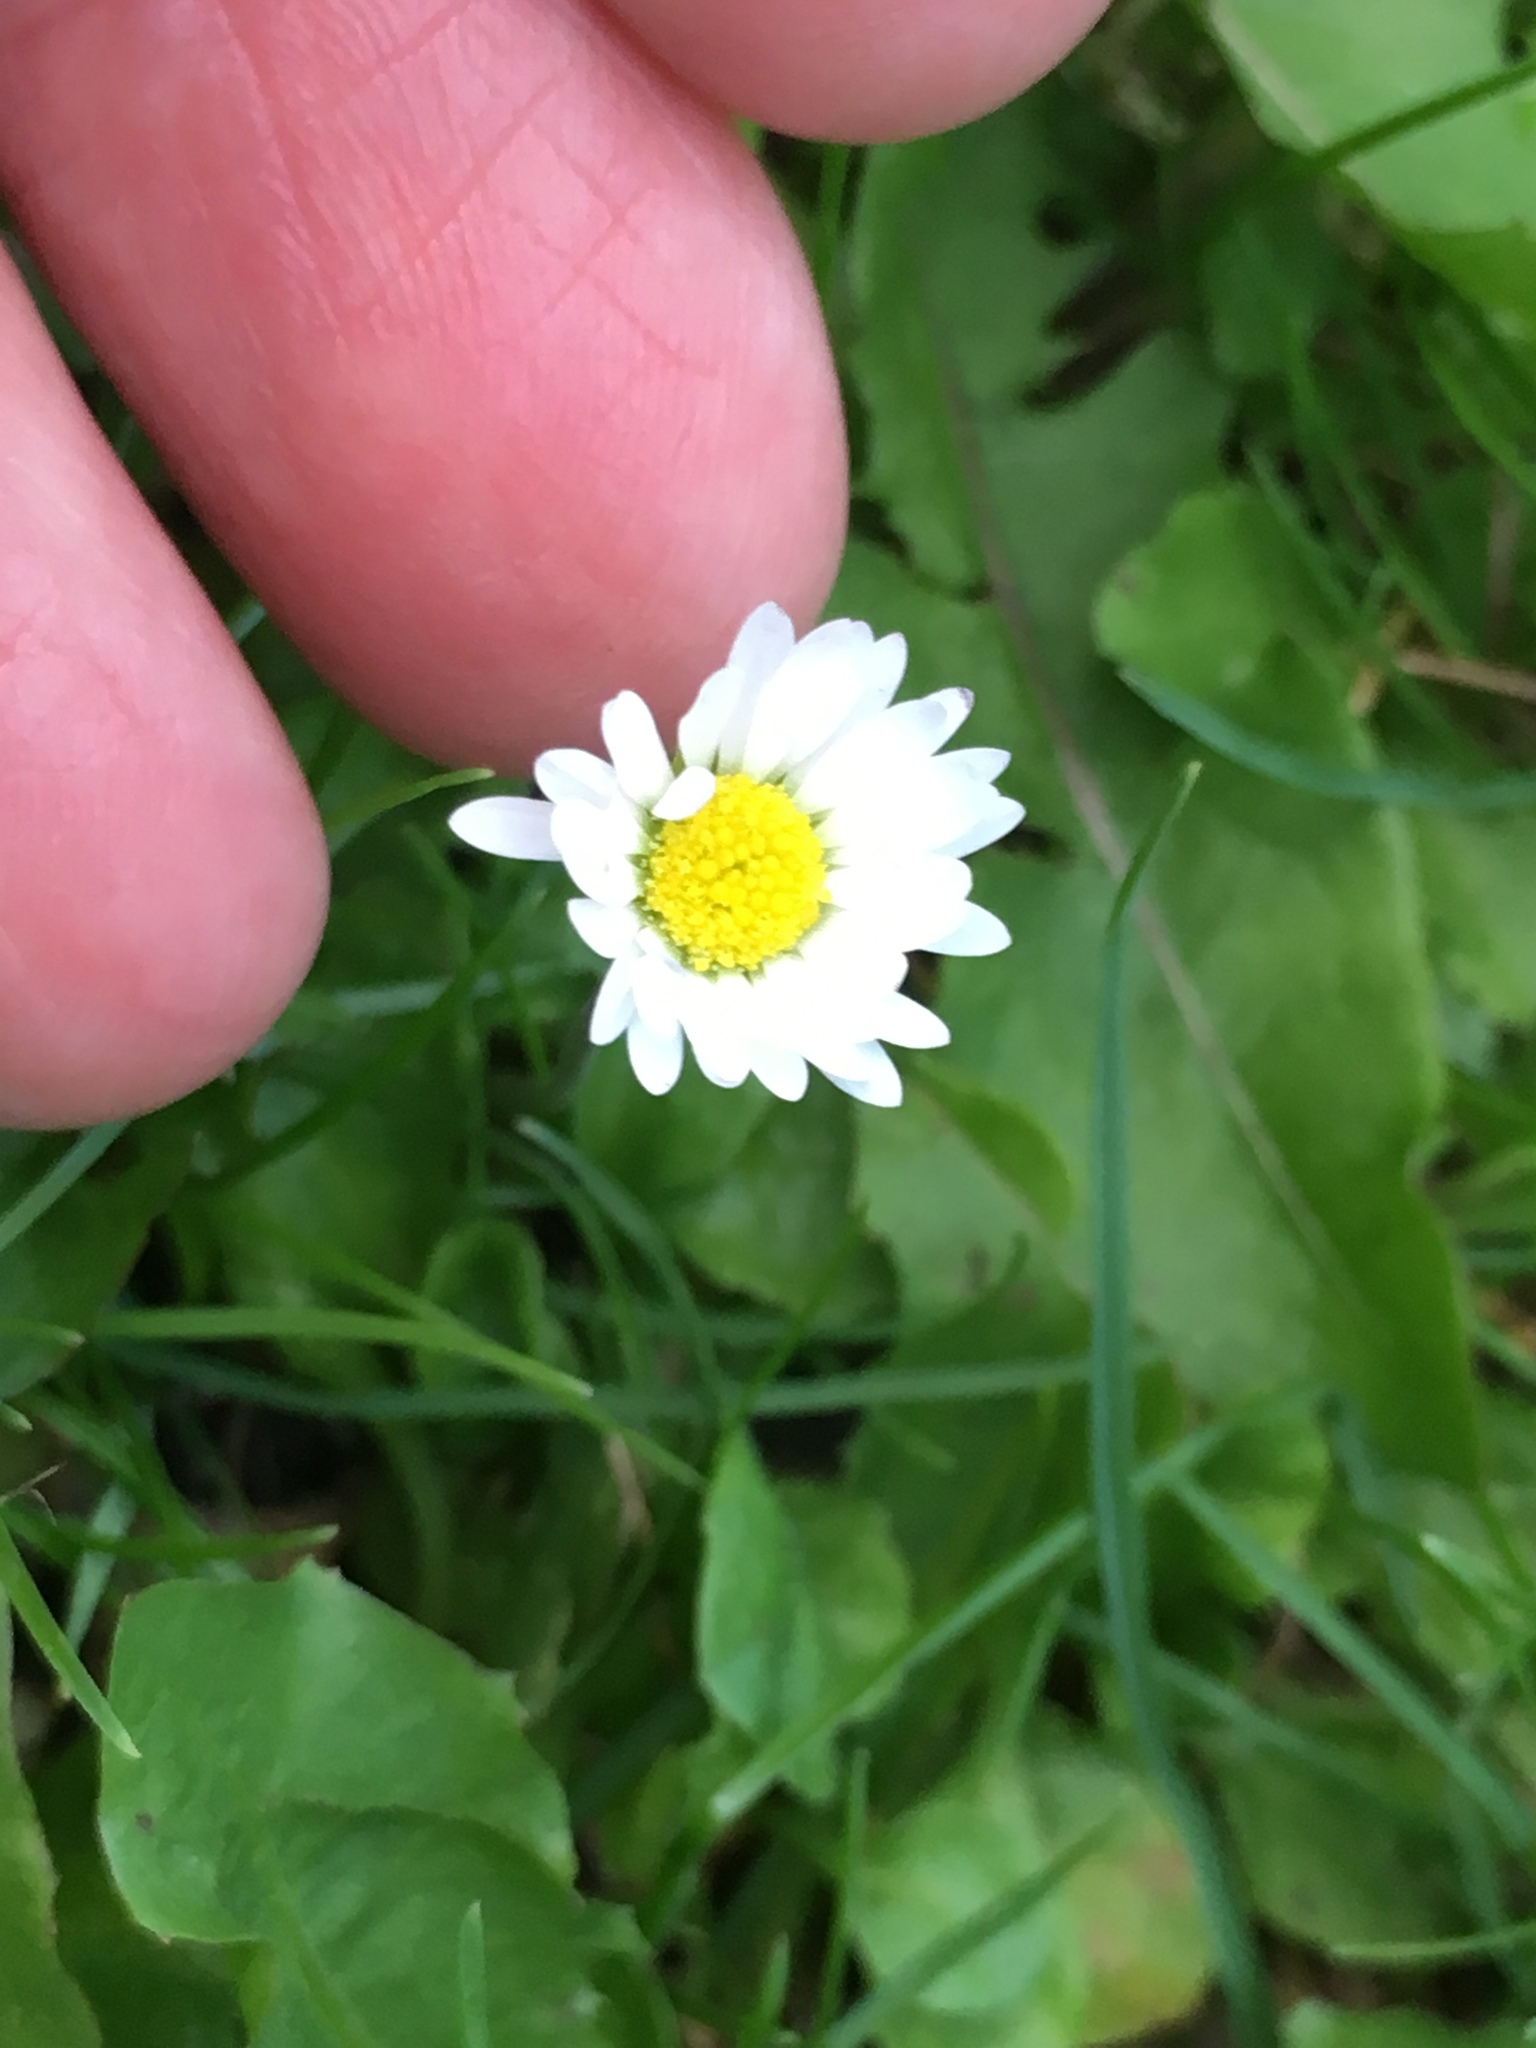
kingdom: Plantae
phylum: Tracheophyta
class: Magnoliopsida
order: Asterales
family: Asteraceae
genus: Bellis
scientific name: Bellis perennis
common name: Lawndaisy
